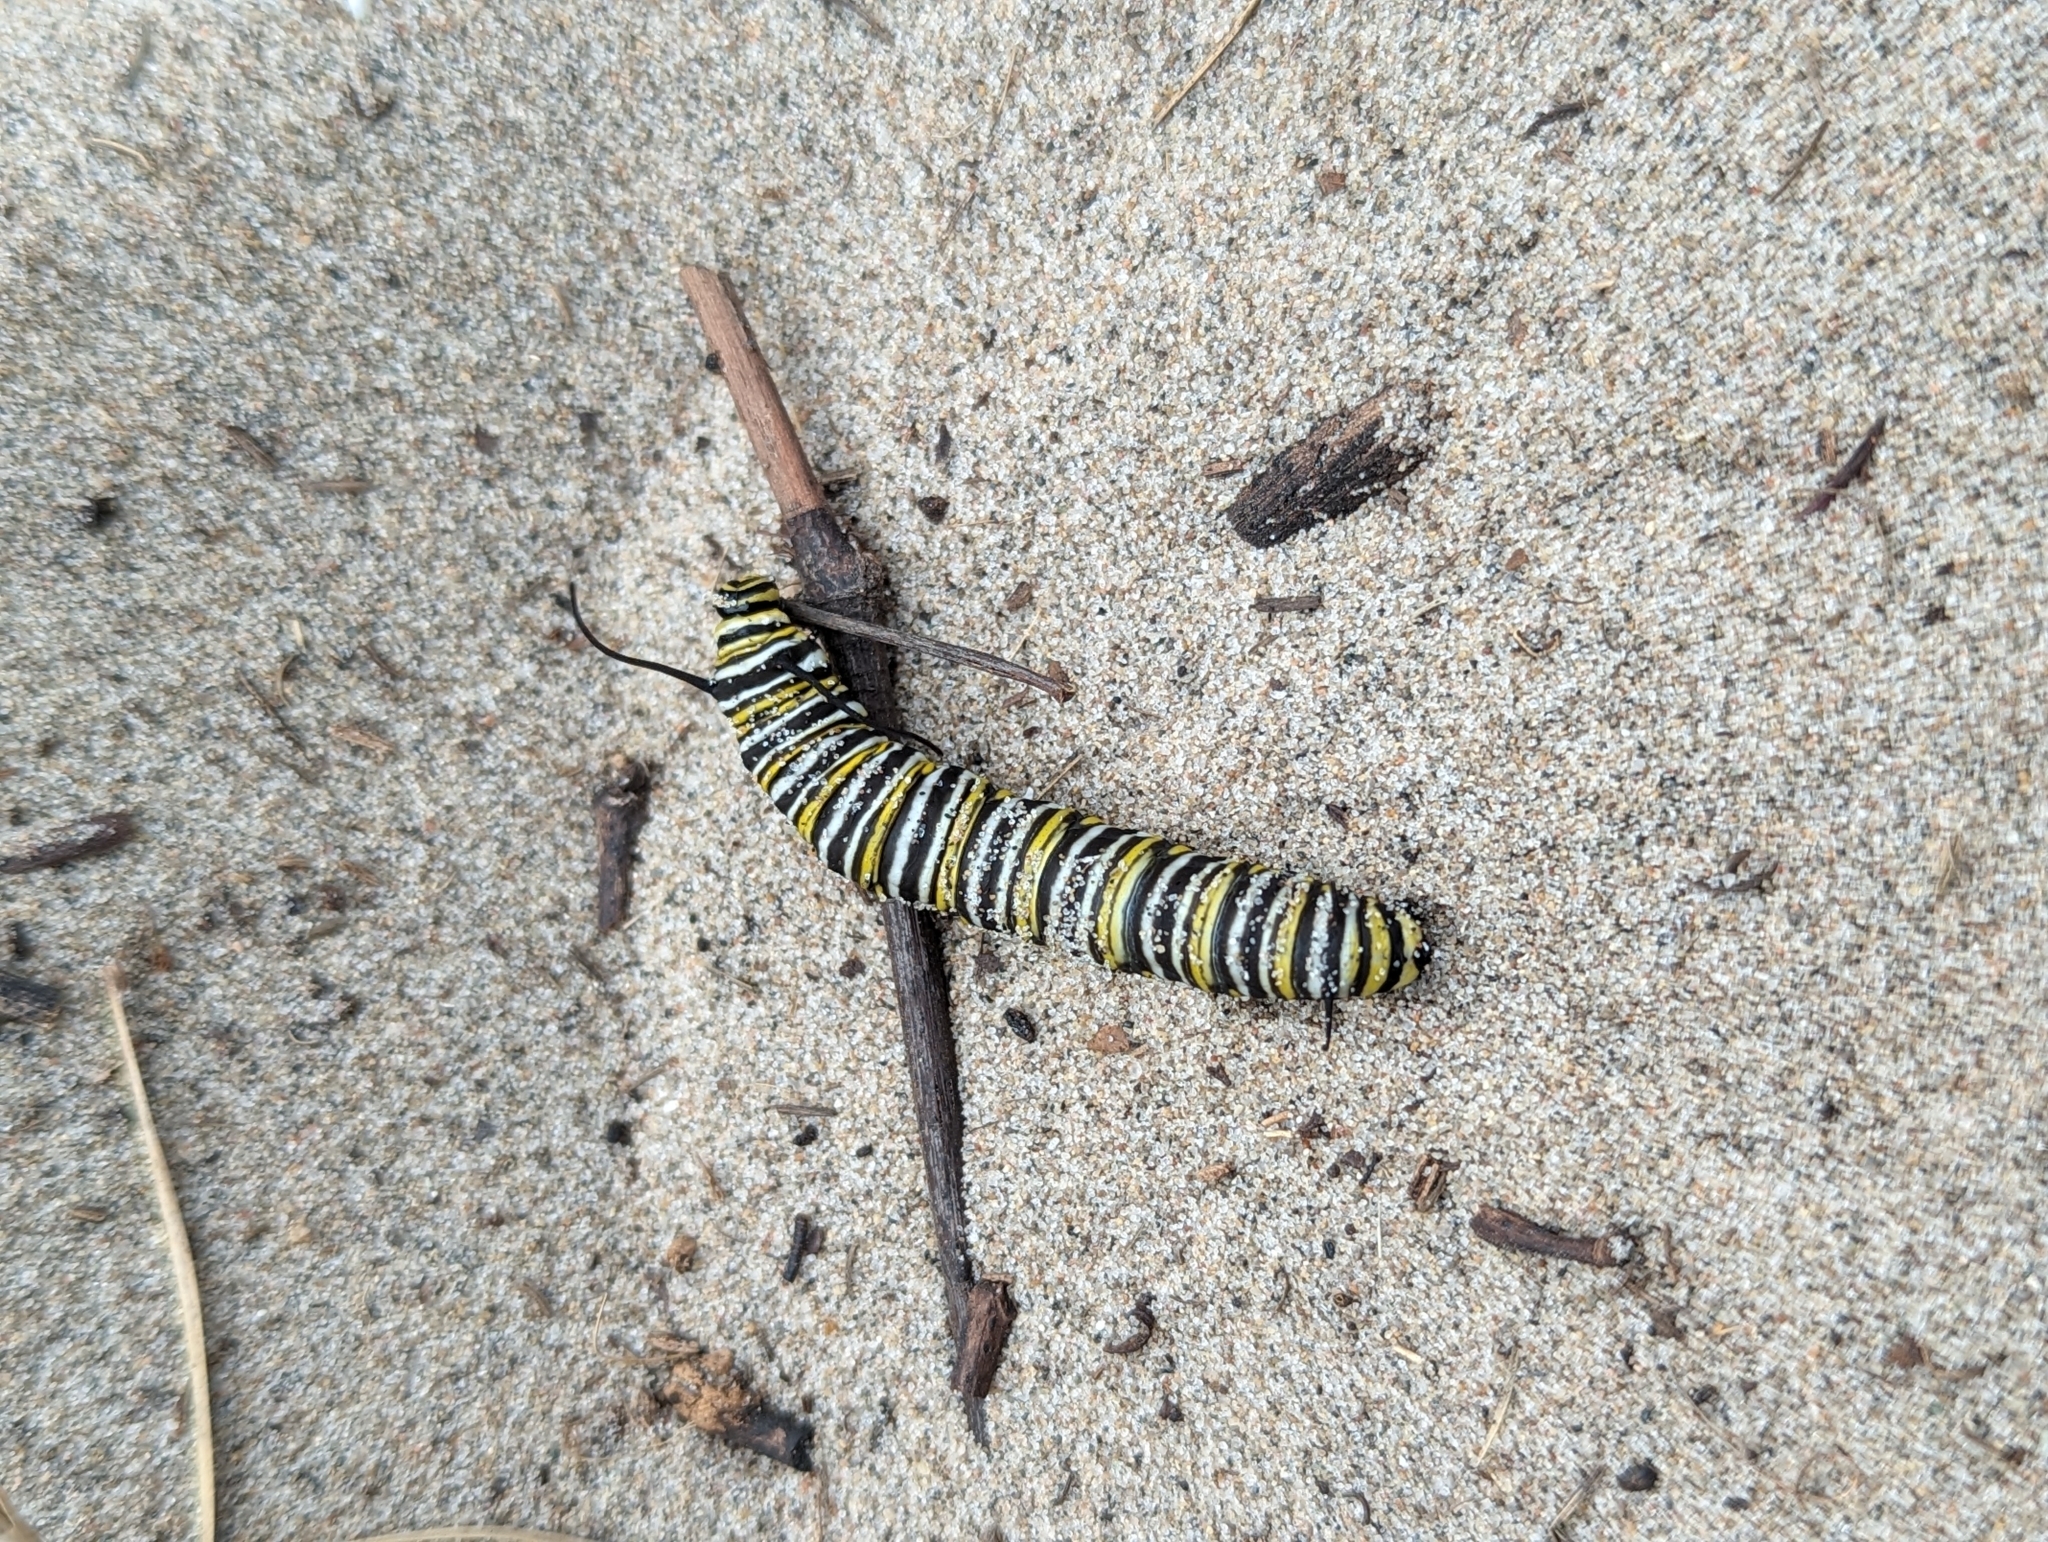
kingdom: Animalia
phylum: Arthropoda
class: Insecta
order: Lepidoptera
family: Nymphalidae
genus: Danaus
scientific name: Danaus plexippus
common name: Monarch
